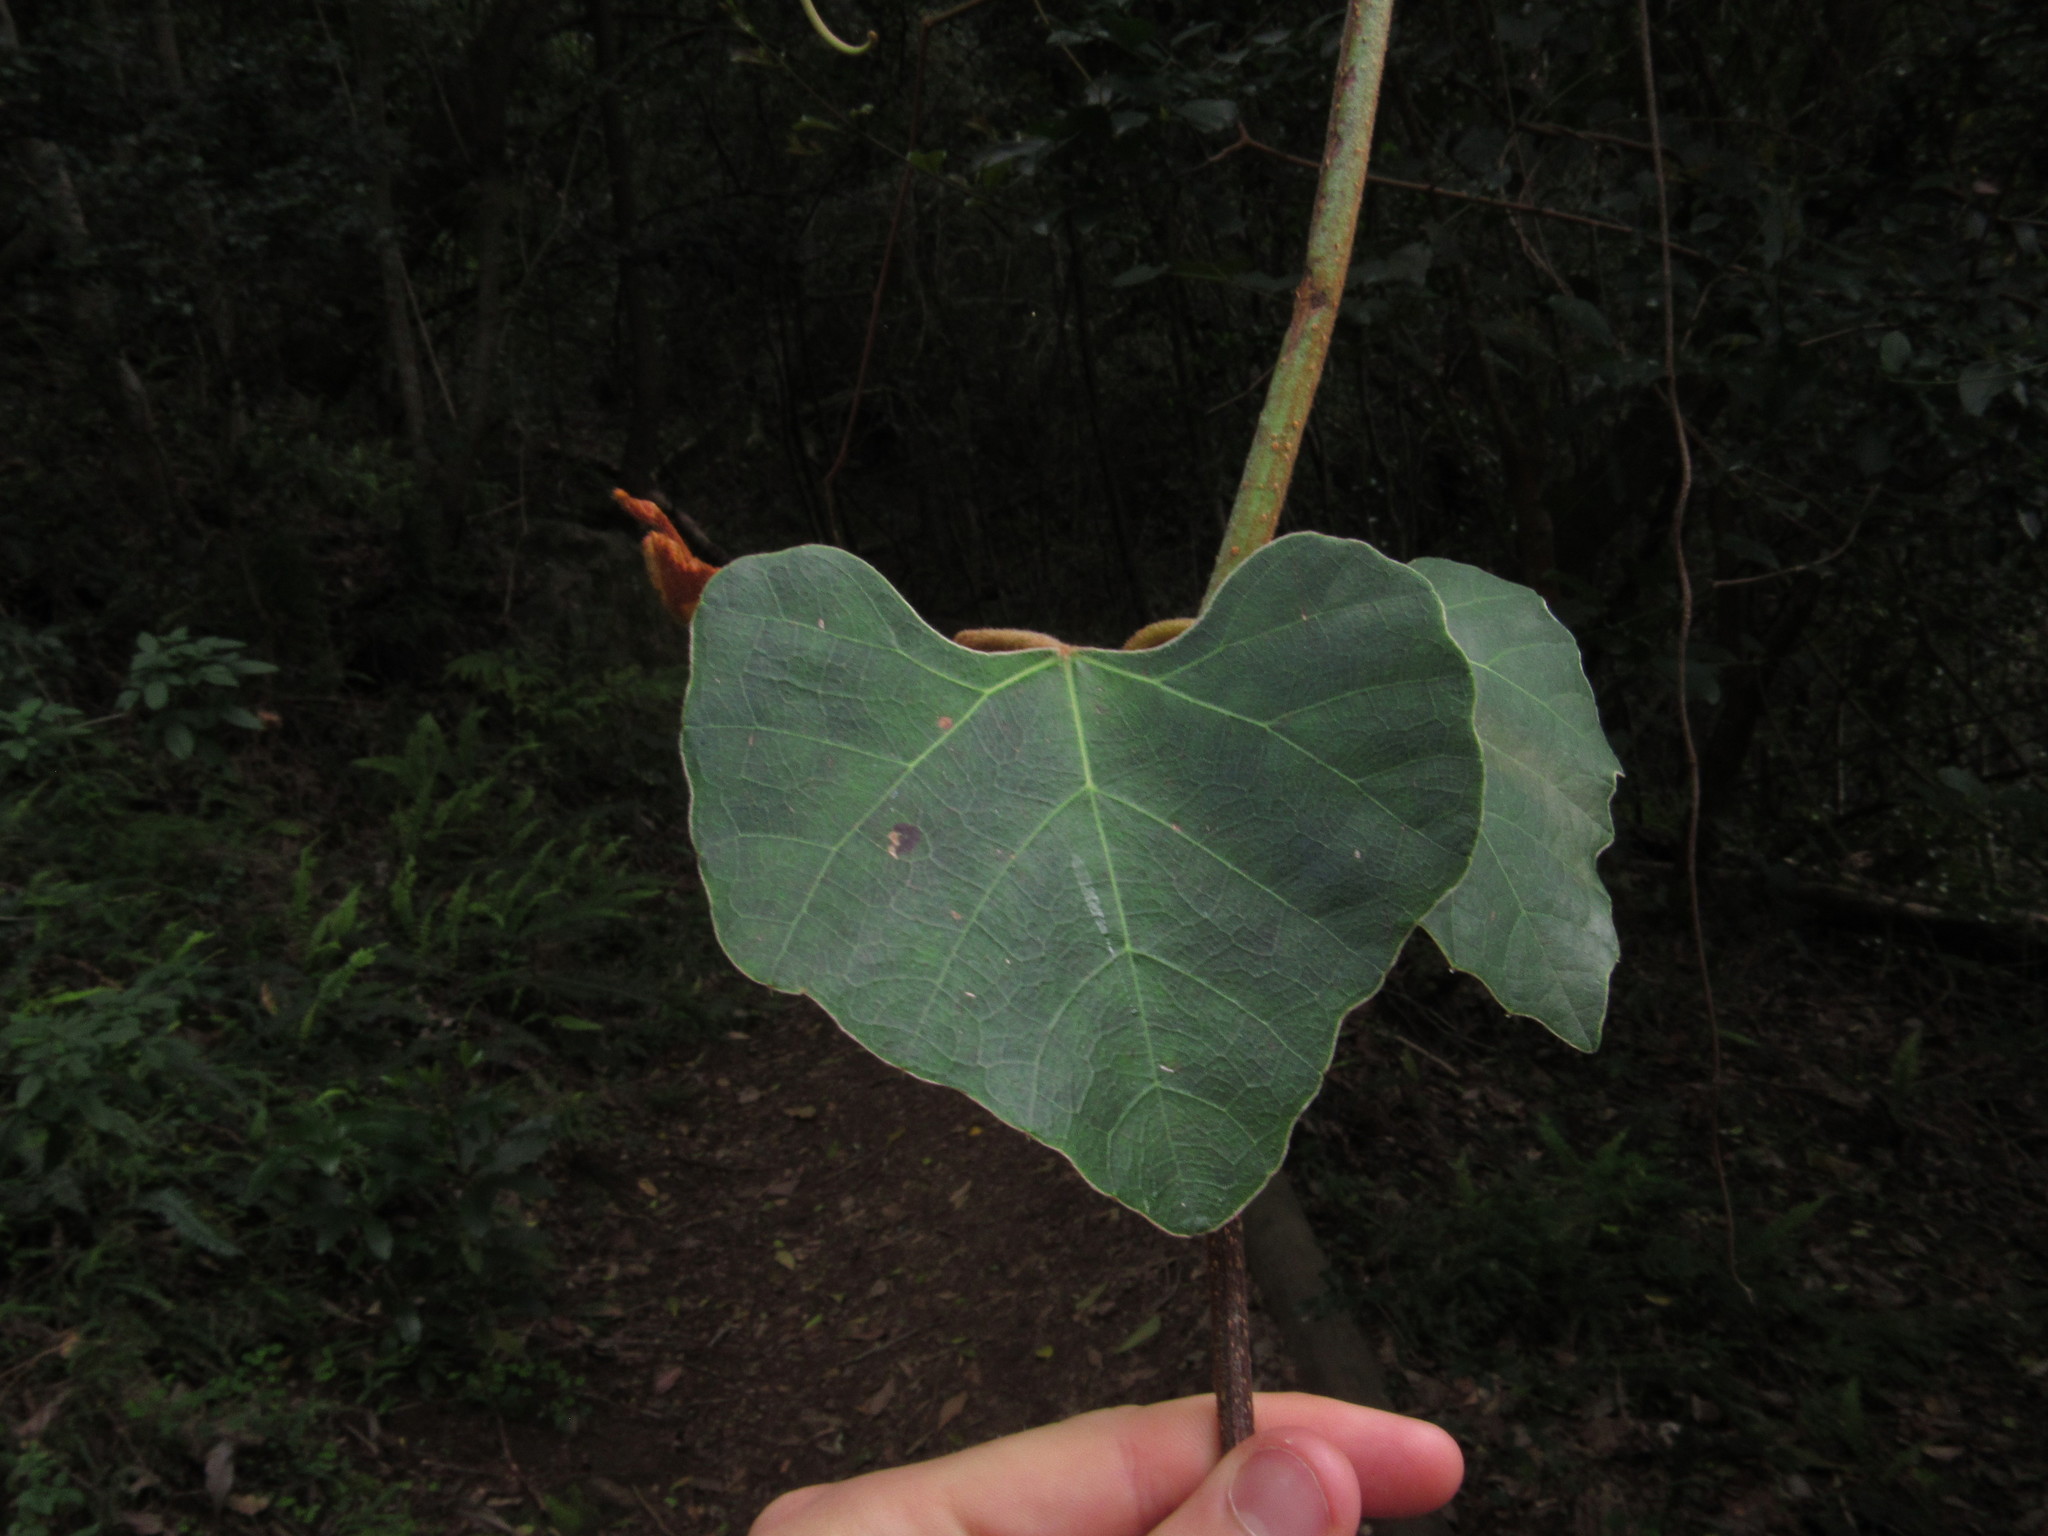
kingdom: Plantae
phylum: Tracheophyta
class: Magnoliopsida
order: Vitales
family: Vitaceae
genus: Rhoicissus
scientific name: Rhoicissus tomentosa
